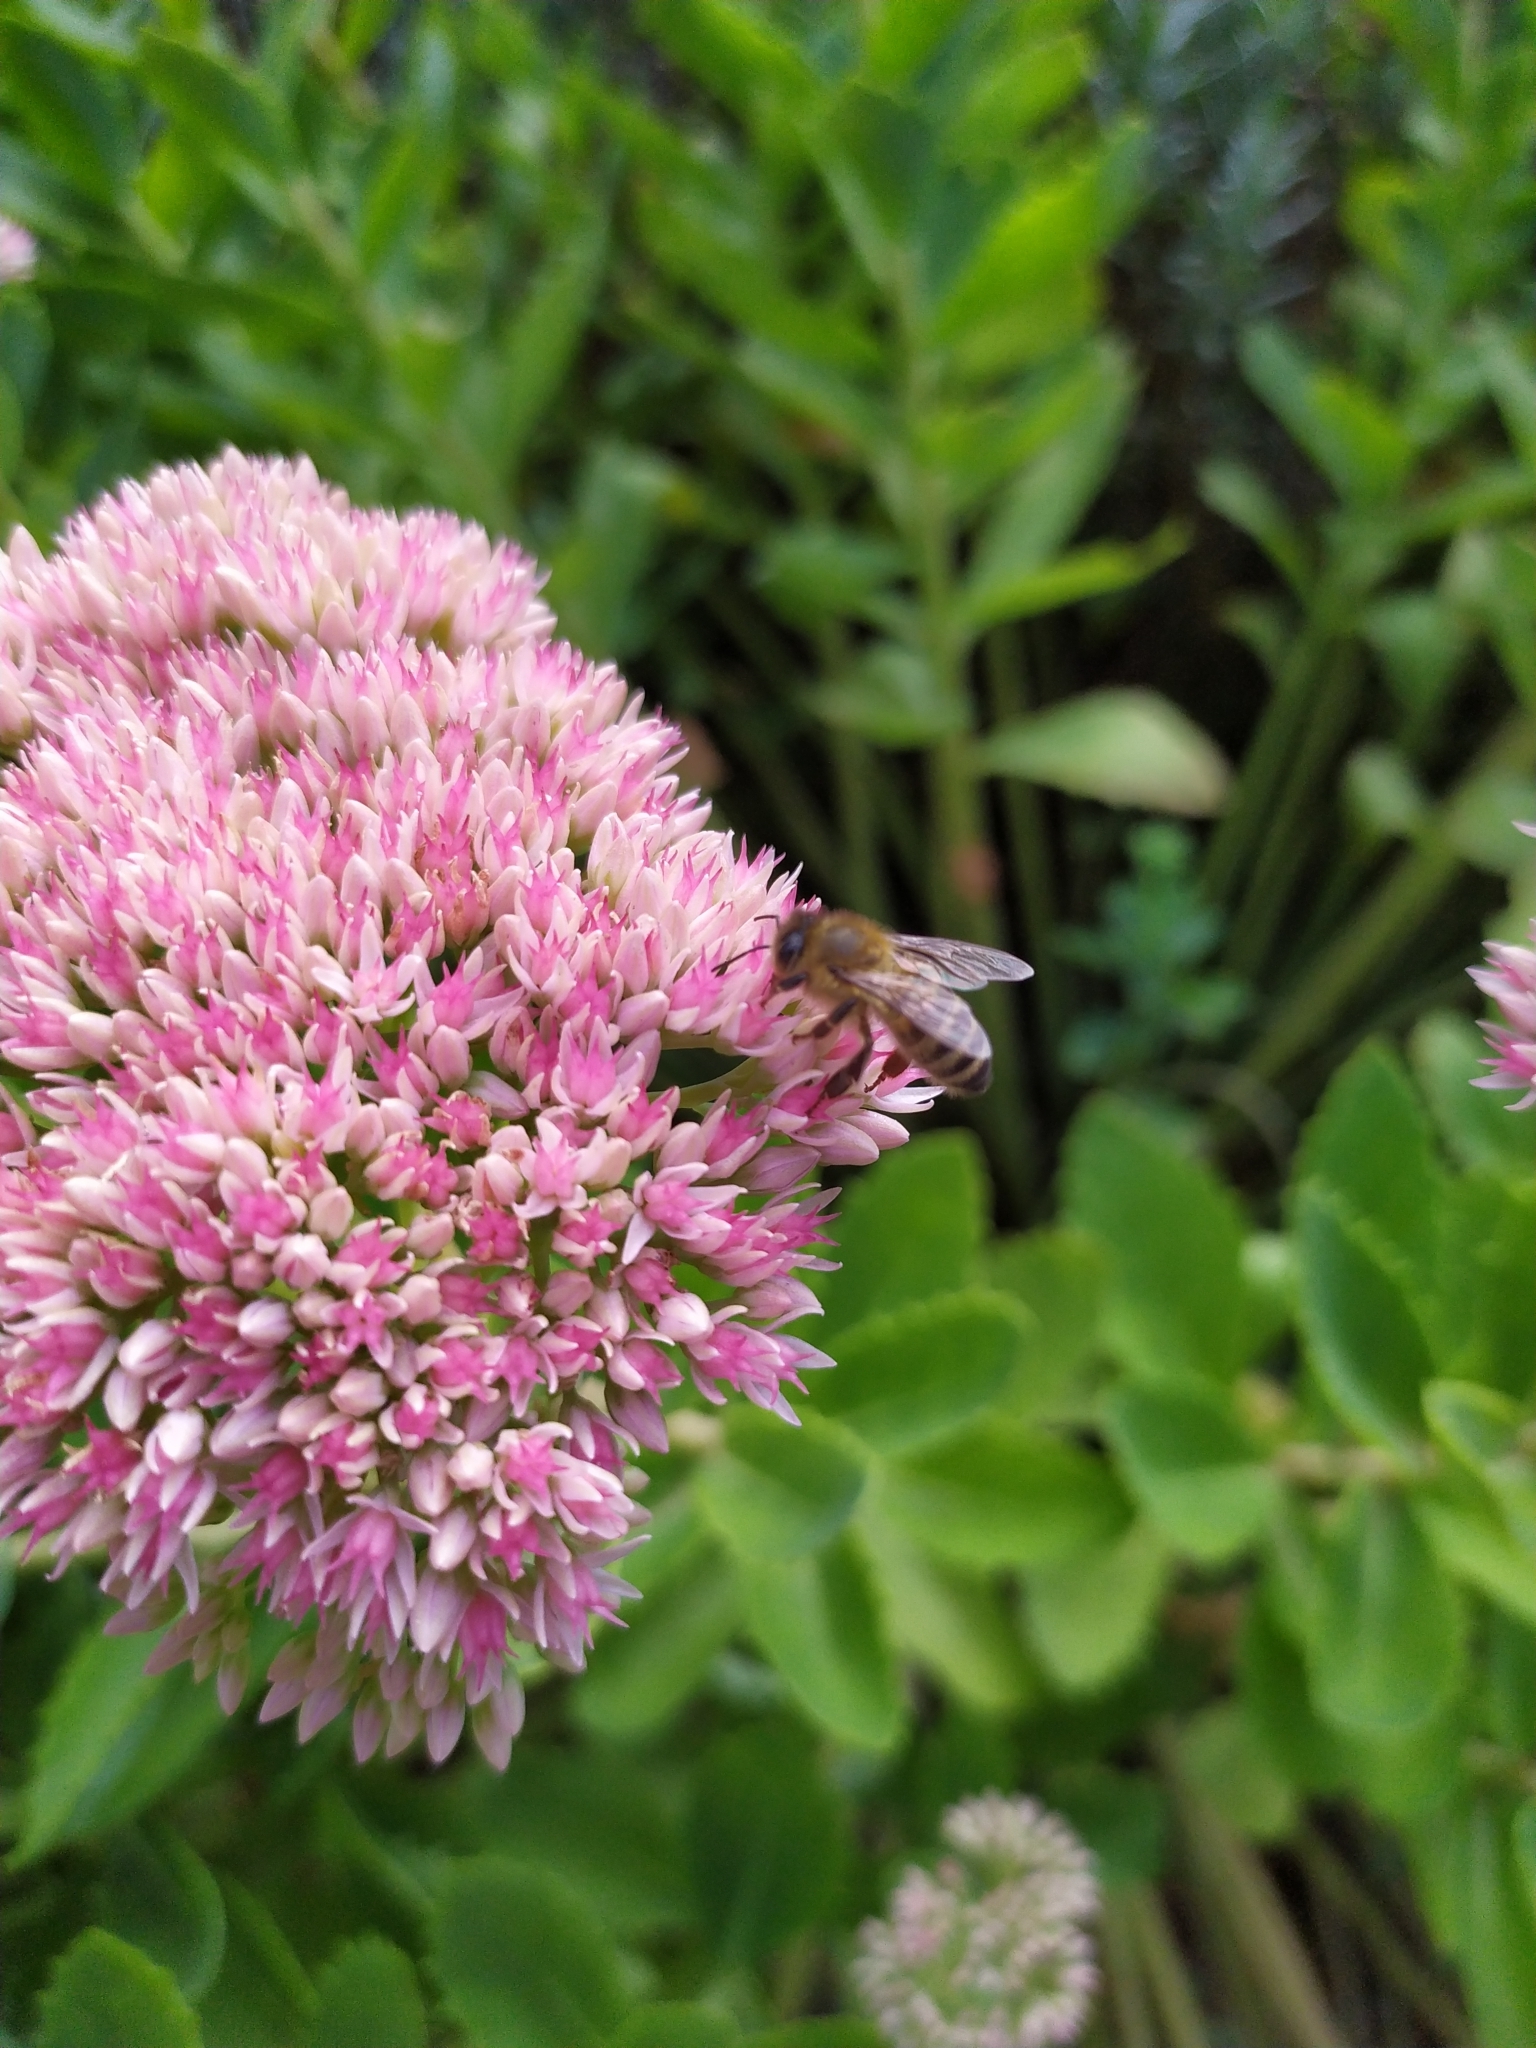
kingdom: Animalia
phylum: Arthropoda
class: Insecta
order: Hymenoptera
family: Apidae
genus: Apis
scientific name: Apis mellifera
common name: Honey bee
